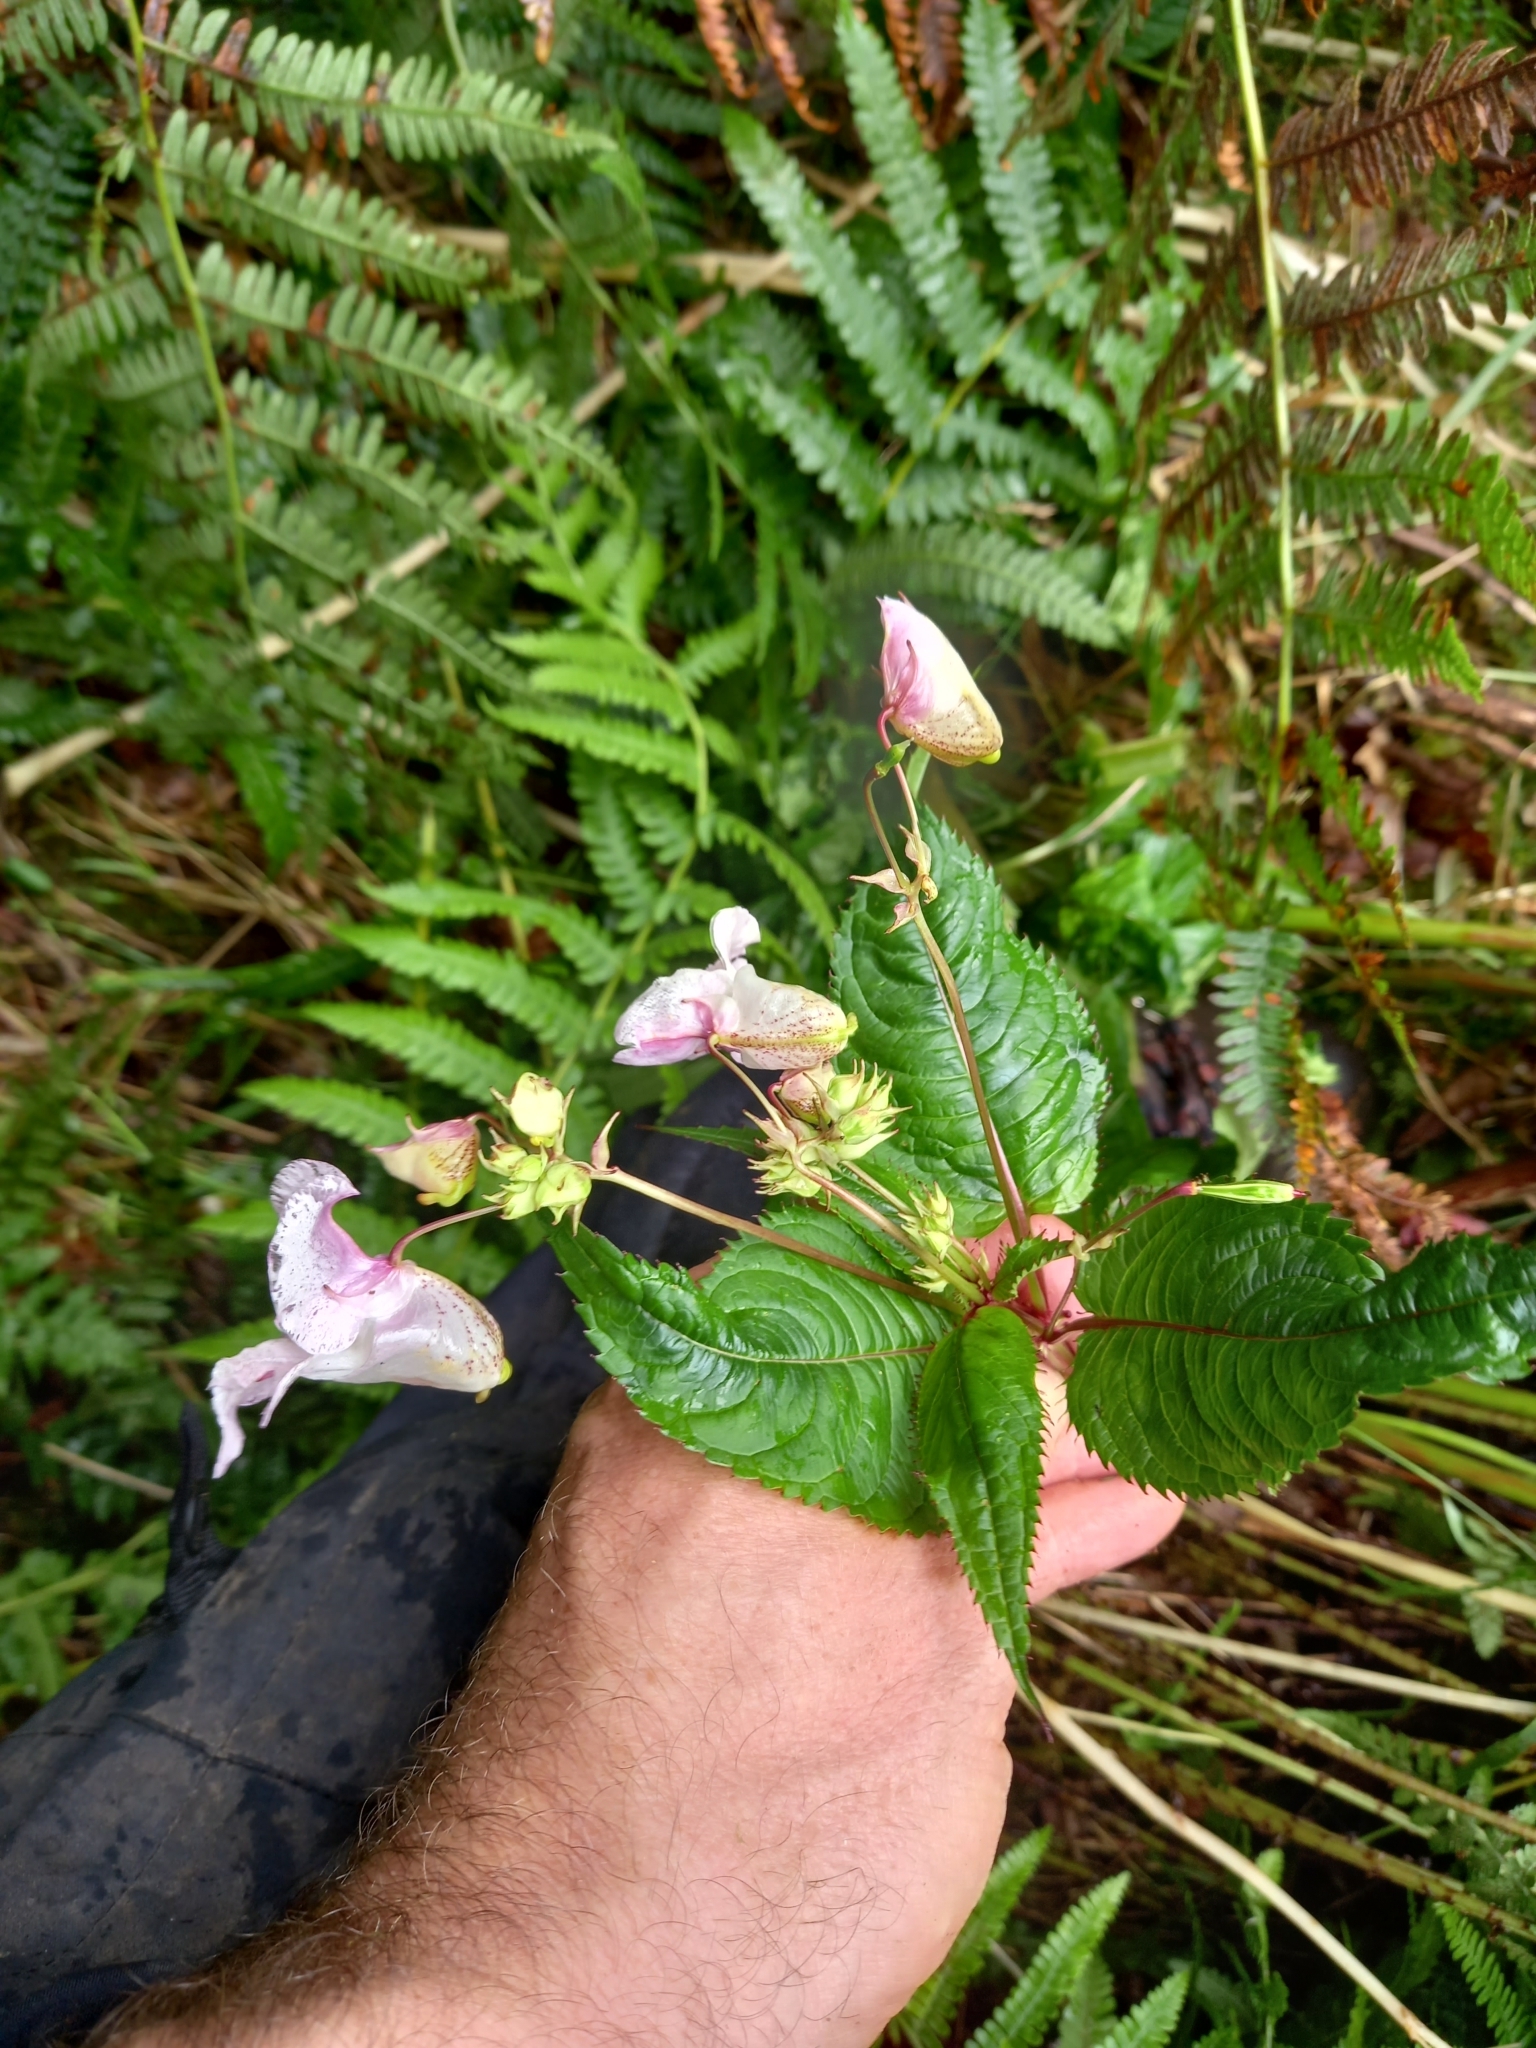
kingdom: Plantae
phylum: Tracheophyta
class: Magnoliopsida
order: Ericales
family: Balsaminaceae
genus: Impatiens
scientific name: Impatiens glandulifera
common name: Himalayan balsam
